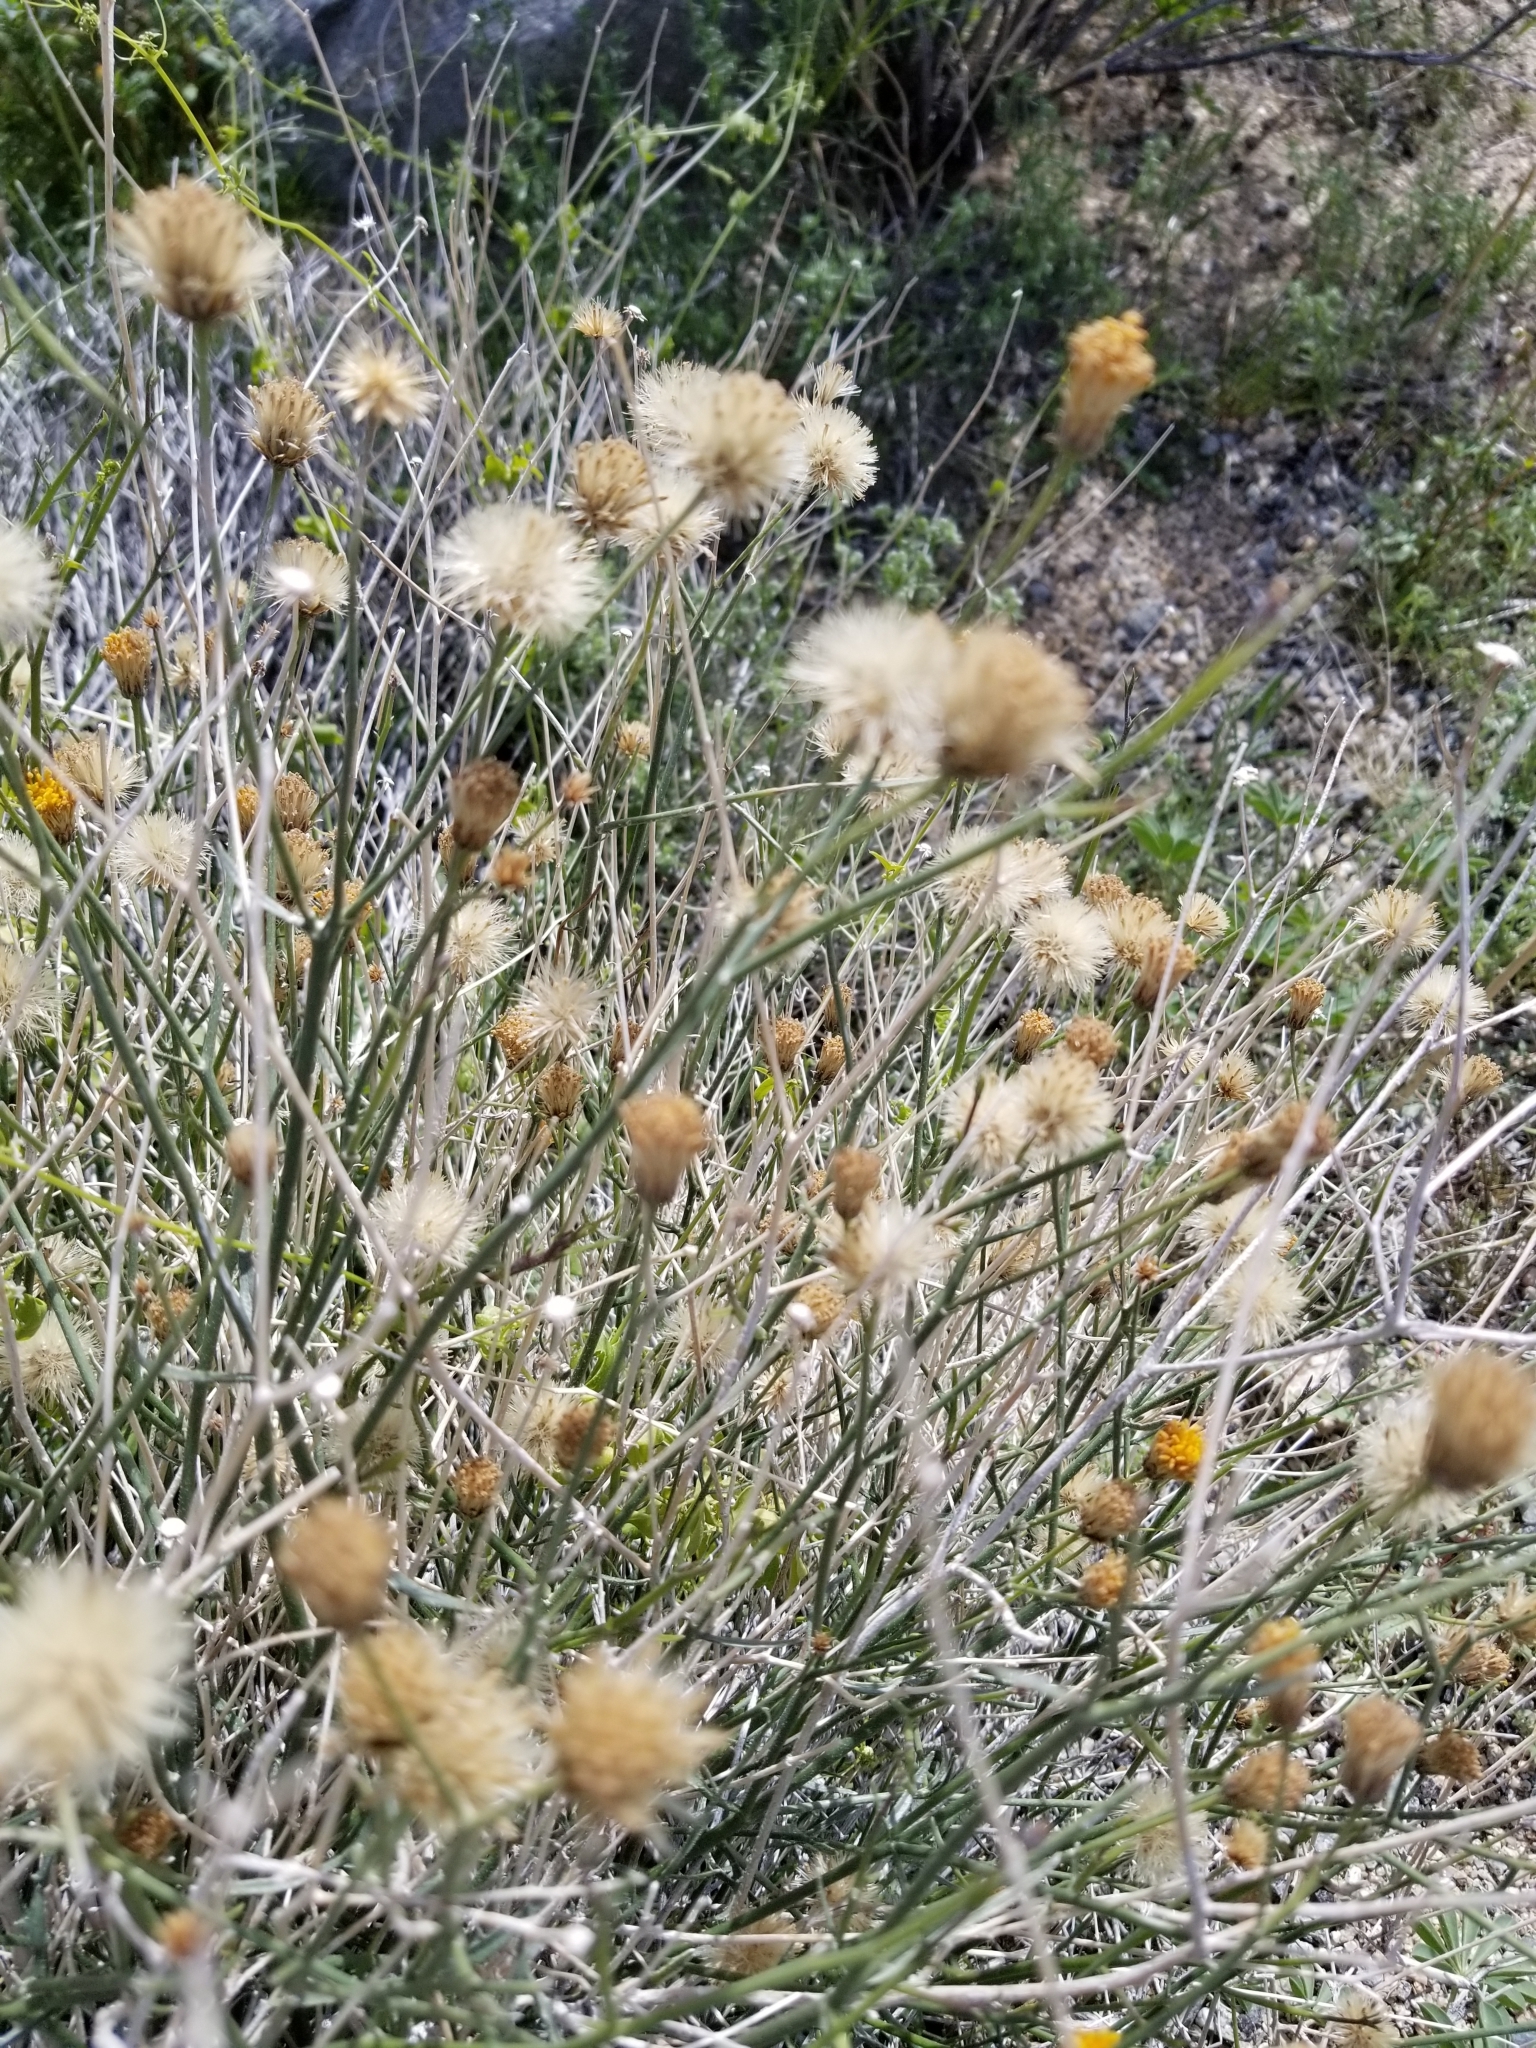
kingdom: Plantae
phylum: Tracheophyta
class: Magnoliopsida
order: Asterales
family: Asteraceae
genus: Bebbia
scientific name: Bebbia juncea
